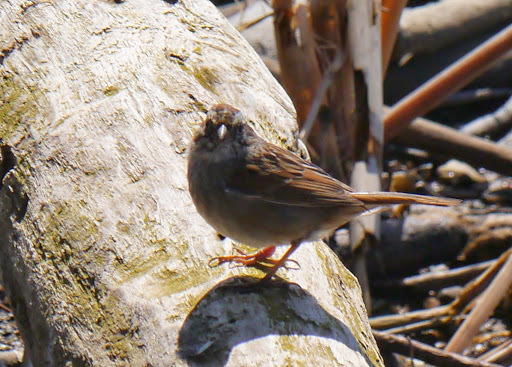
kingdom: Animalia
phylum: Chordata
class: Aves
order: Passeriformes
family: Passerellidae
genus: Melospiza
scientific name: Melospiza georgiana
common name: Swamp sparrow
